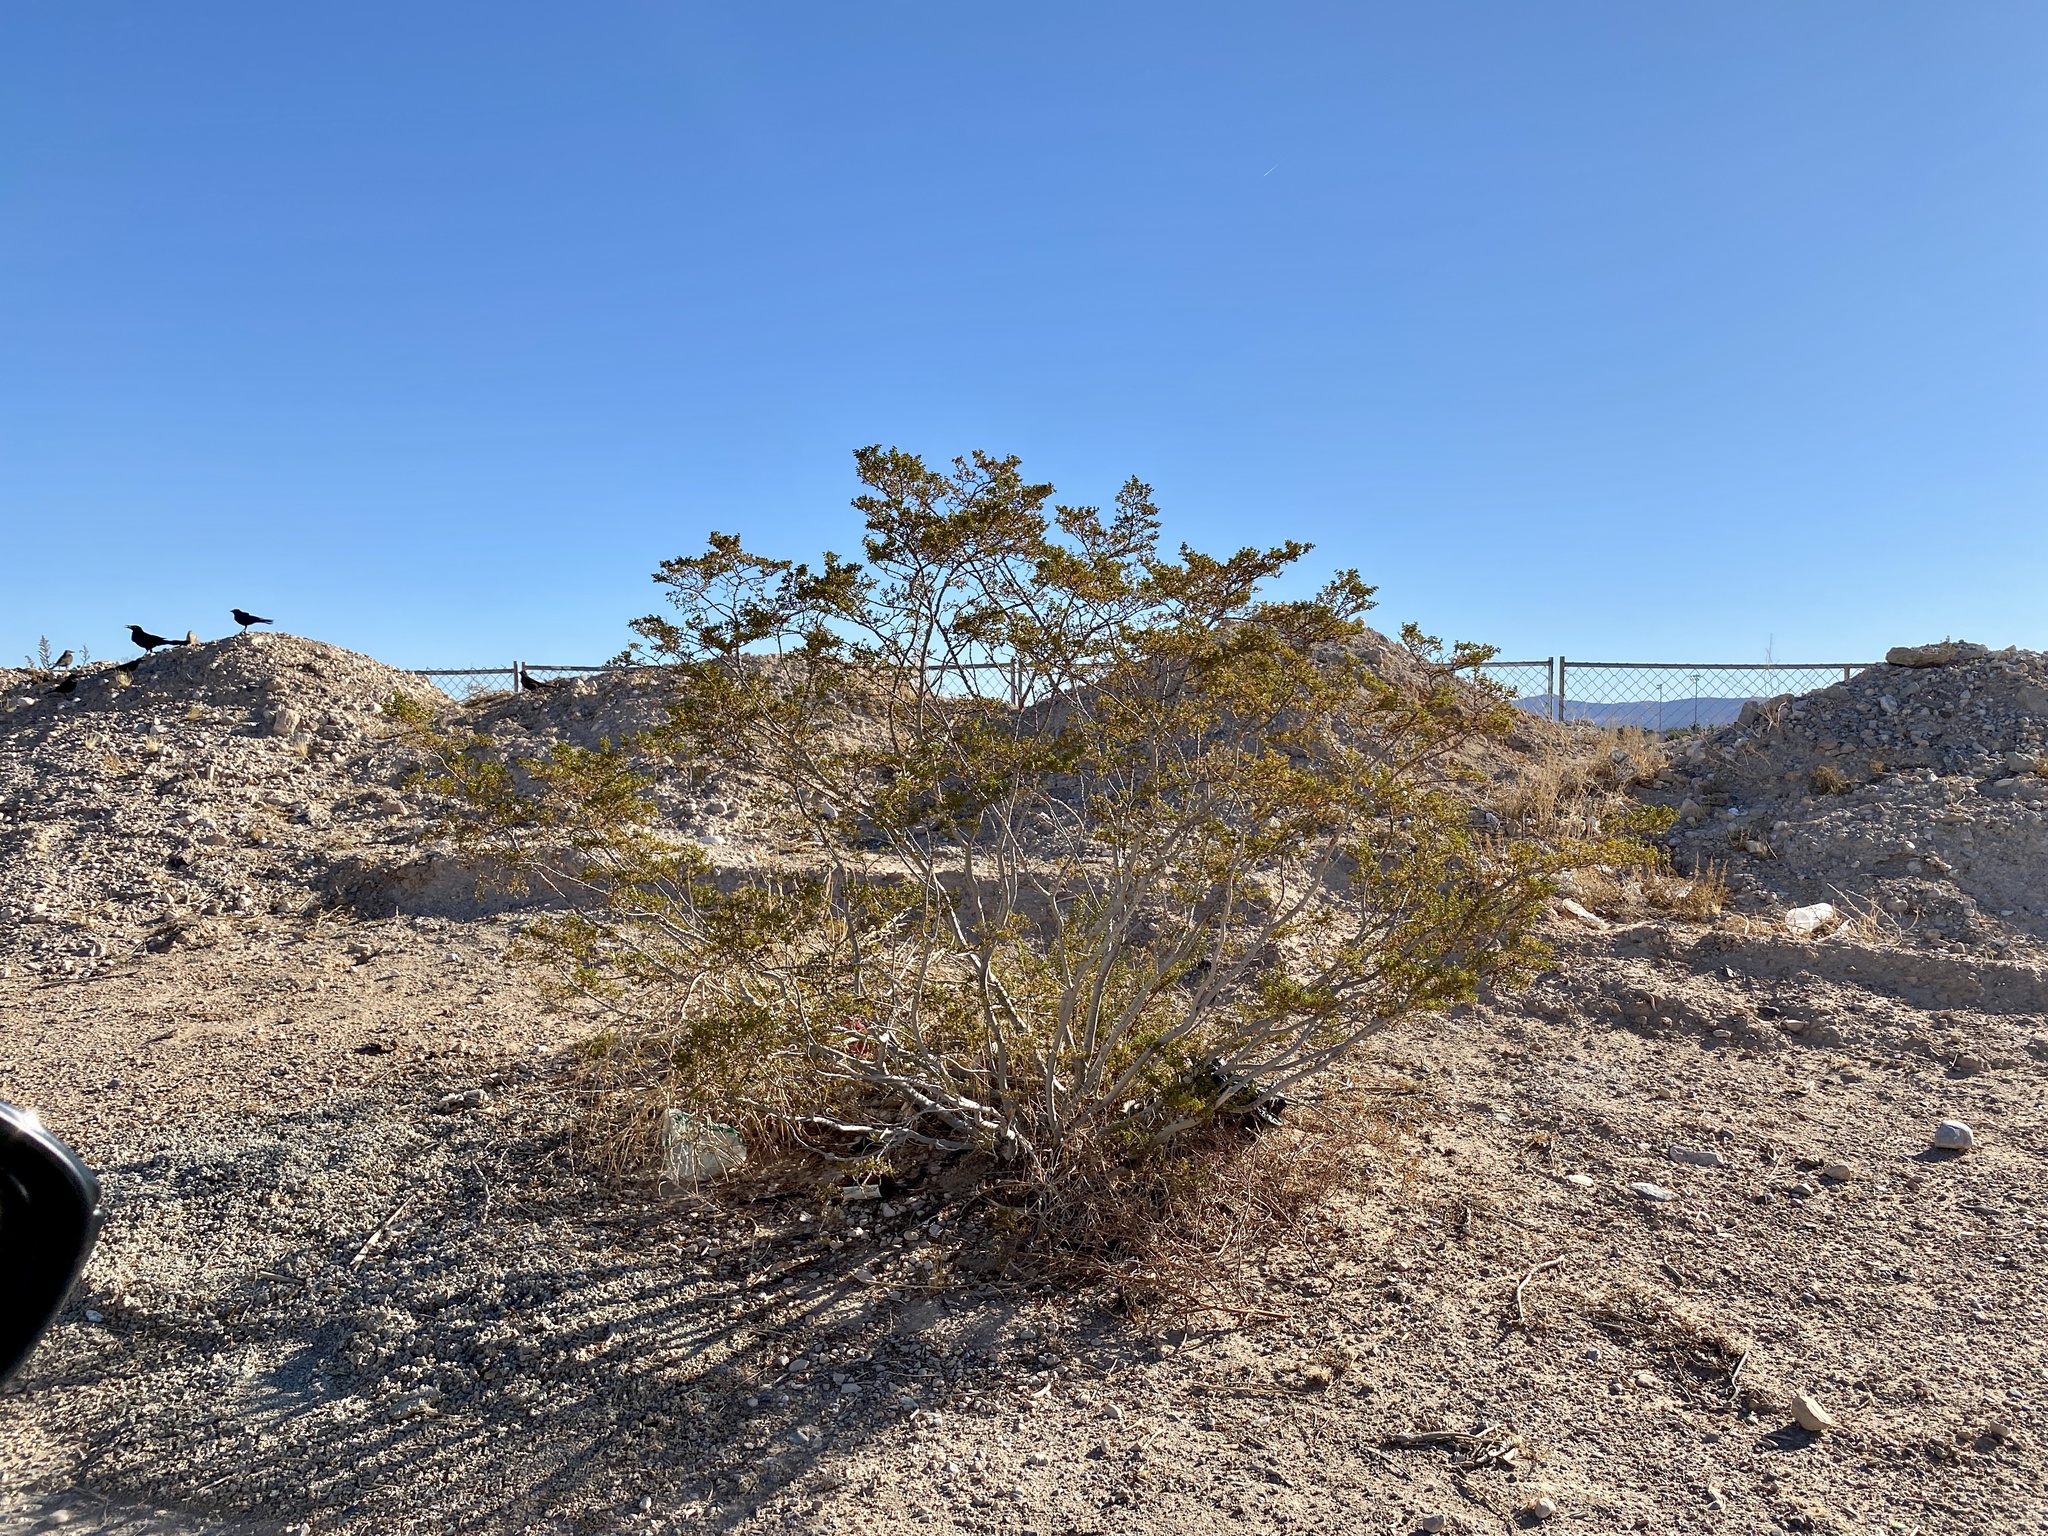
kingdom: Plantae
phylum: Tracheophyta
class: Magnoliopsida
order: Zygophyllales
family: Zygophyllaceae
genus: Larrea
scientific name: Larrea tridentata
